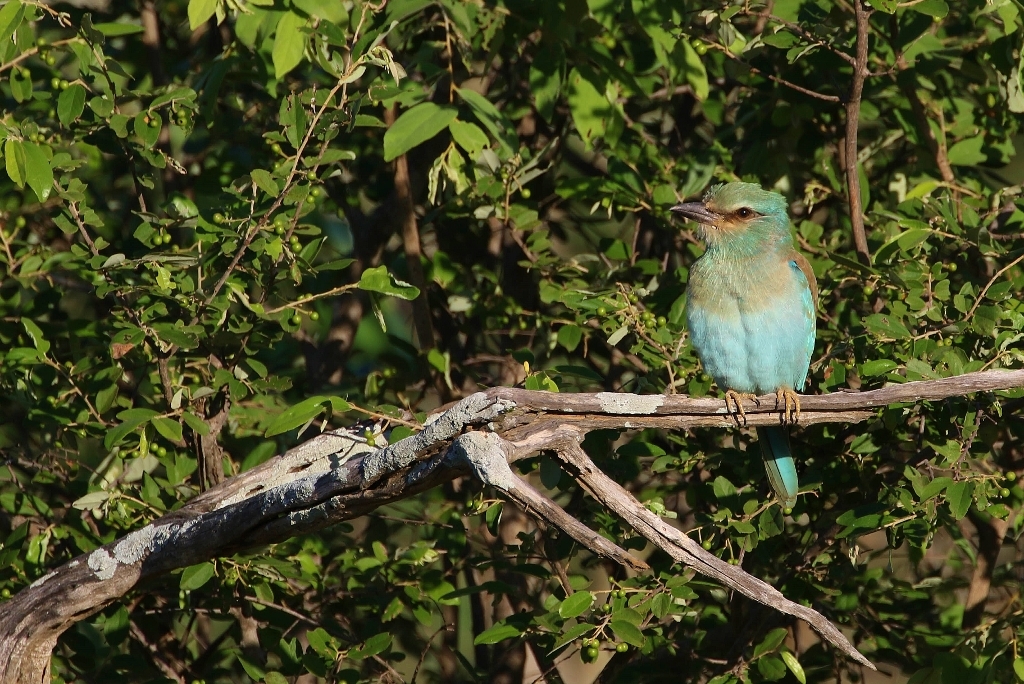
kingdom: Animalia
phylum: Chordata
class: Aves
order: Coraciiformes
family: Coraciidae
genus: Coracias
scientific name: Coracias garrulus
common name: European roller
